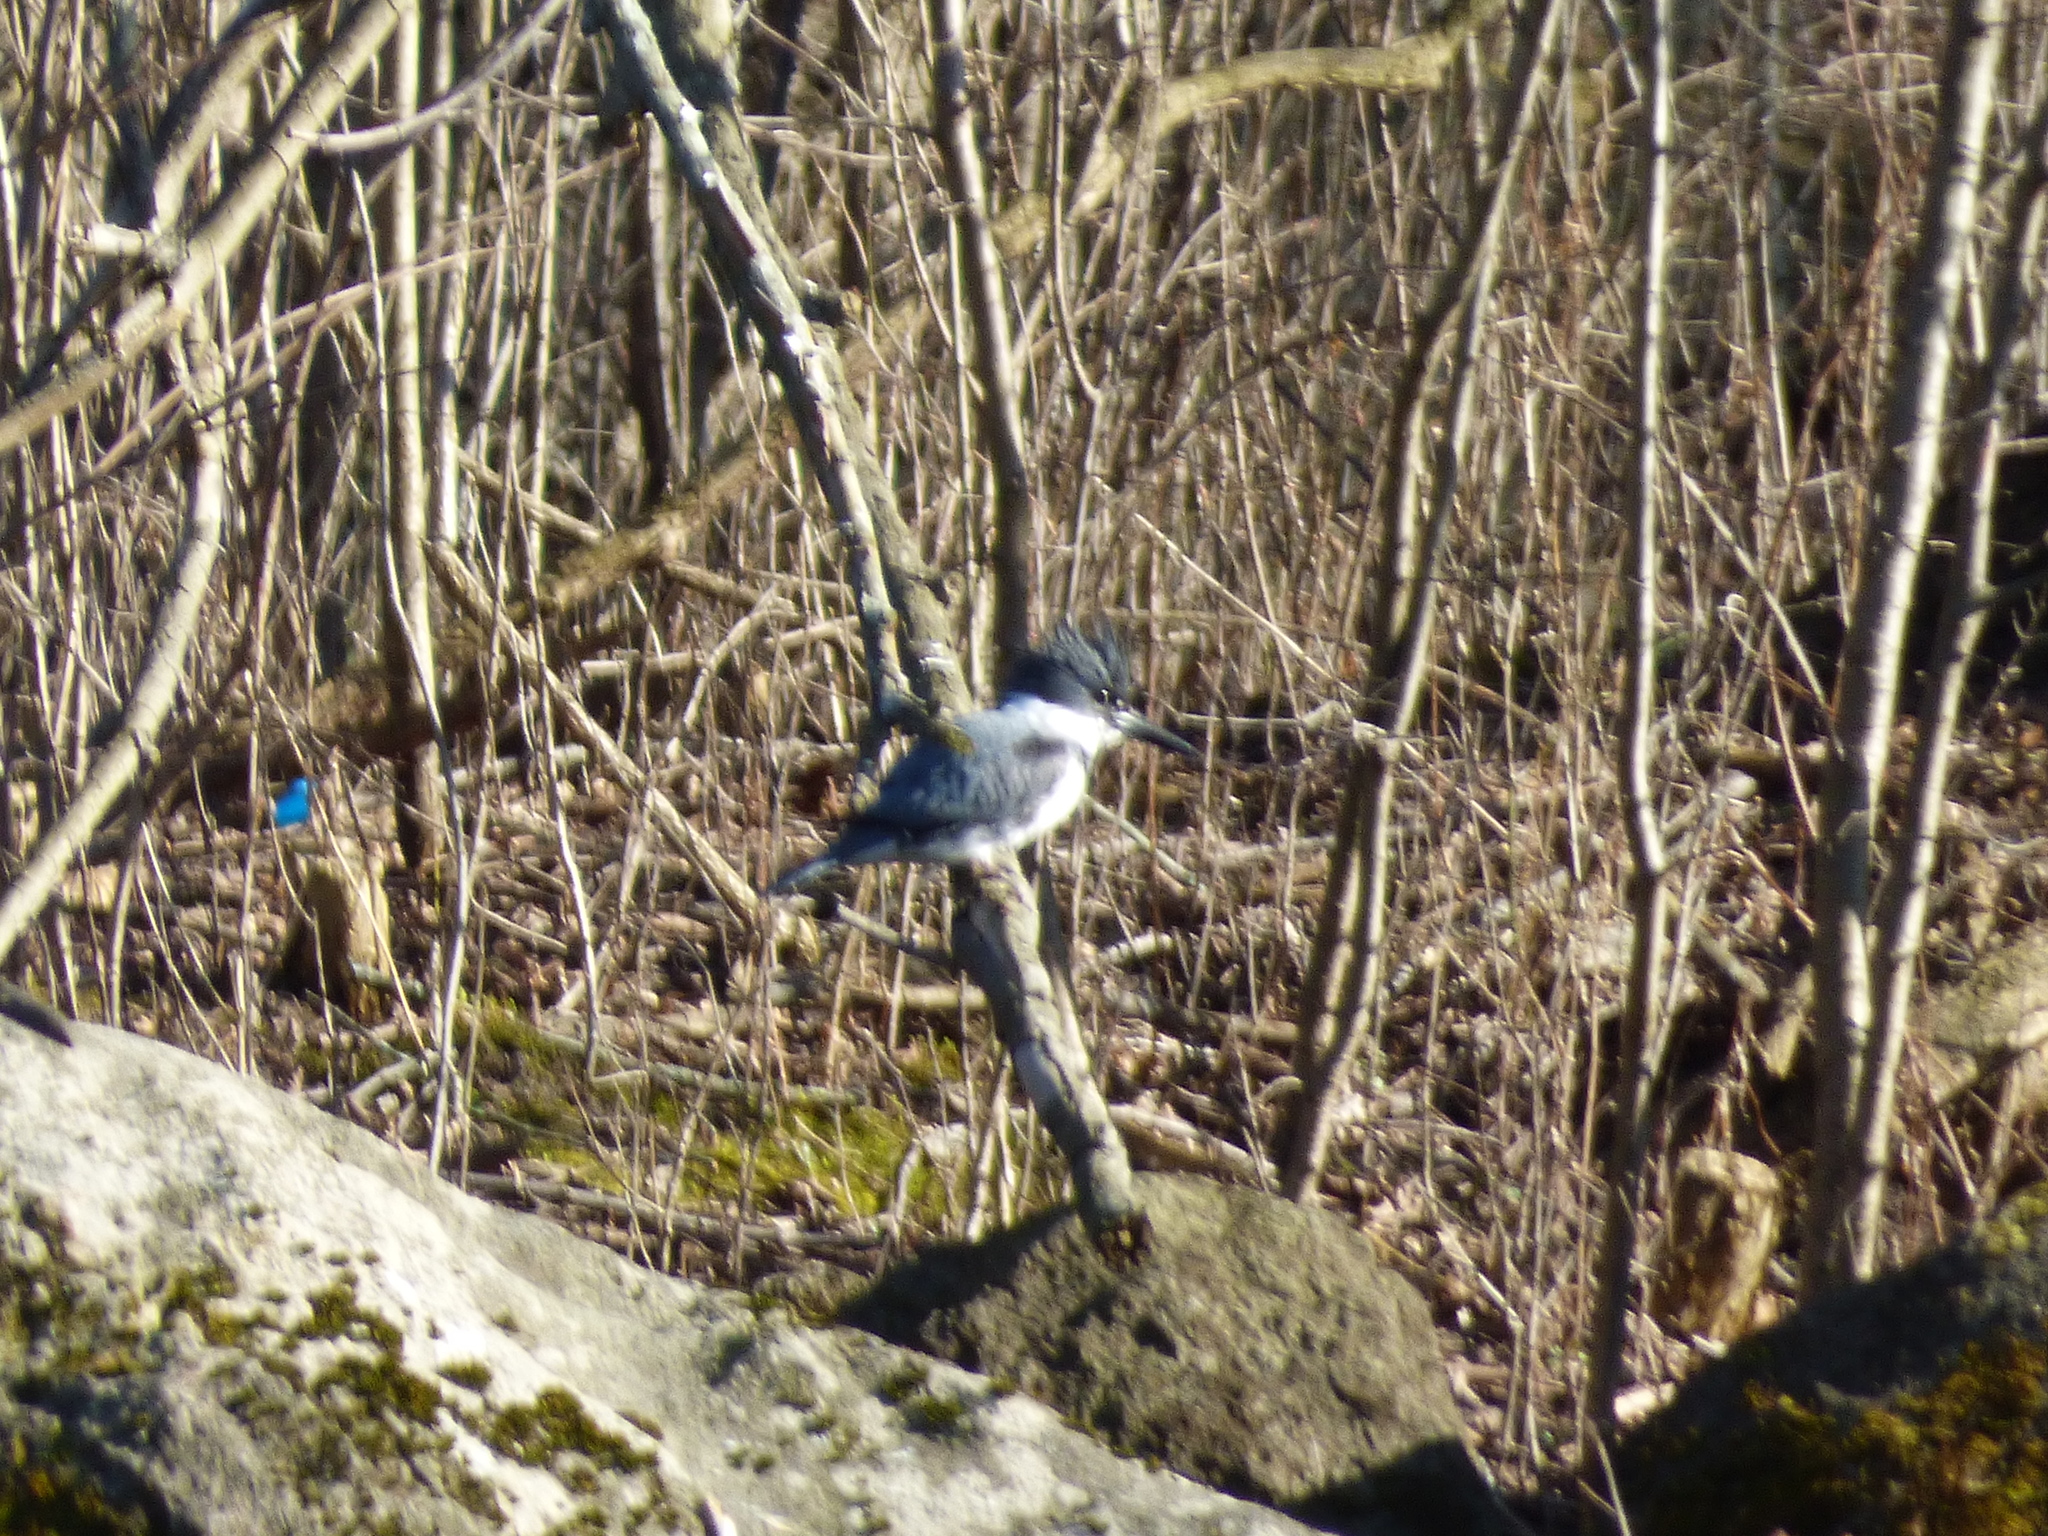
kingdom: Animalia
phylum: Chordata
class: Aves
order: Coraciiformes
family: Alcedinidae
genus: Megaceryle
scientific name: Megaceryle alcyon
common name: Belted kingfisher
